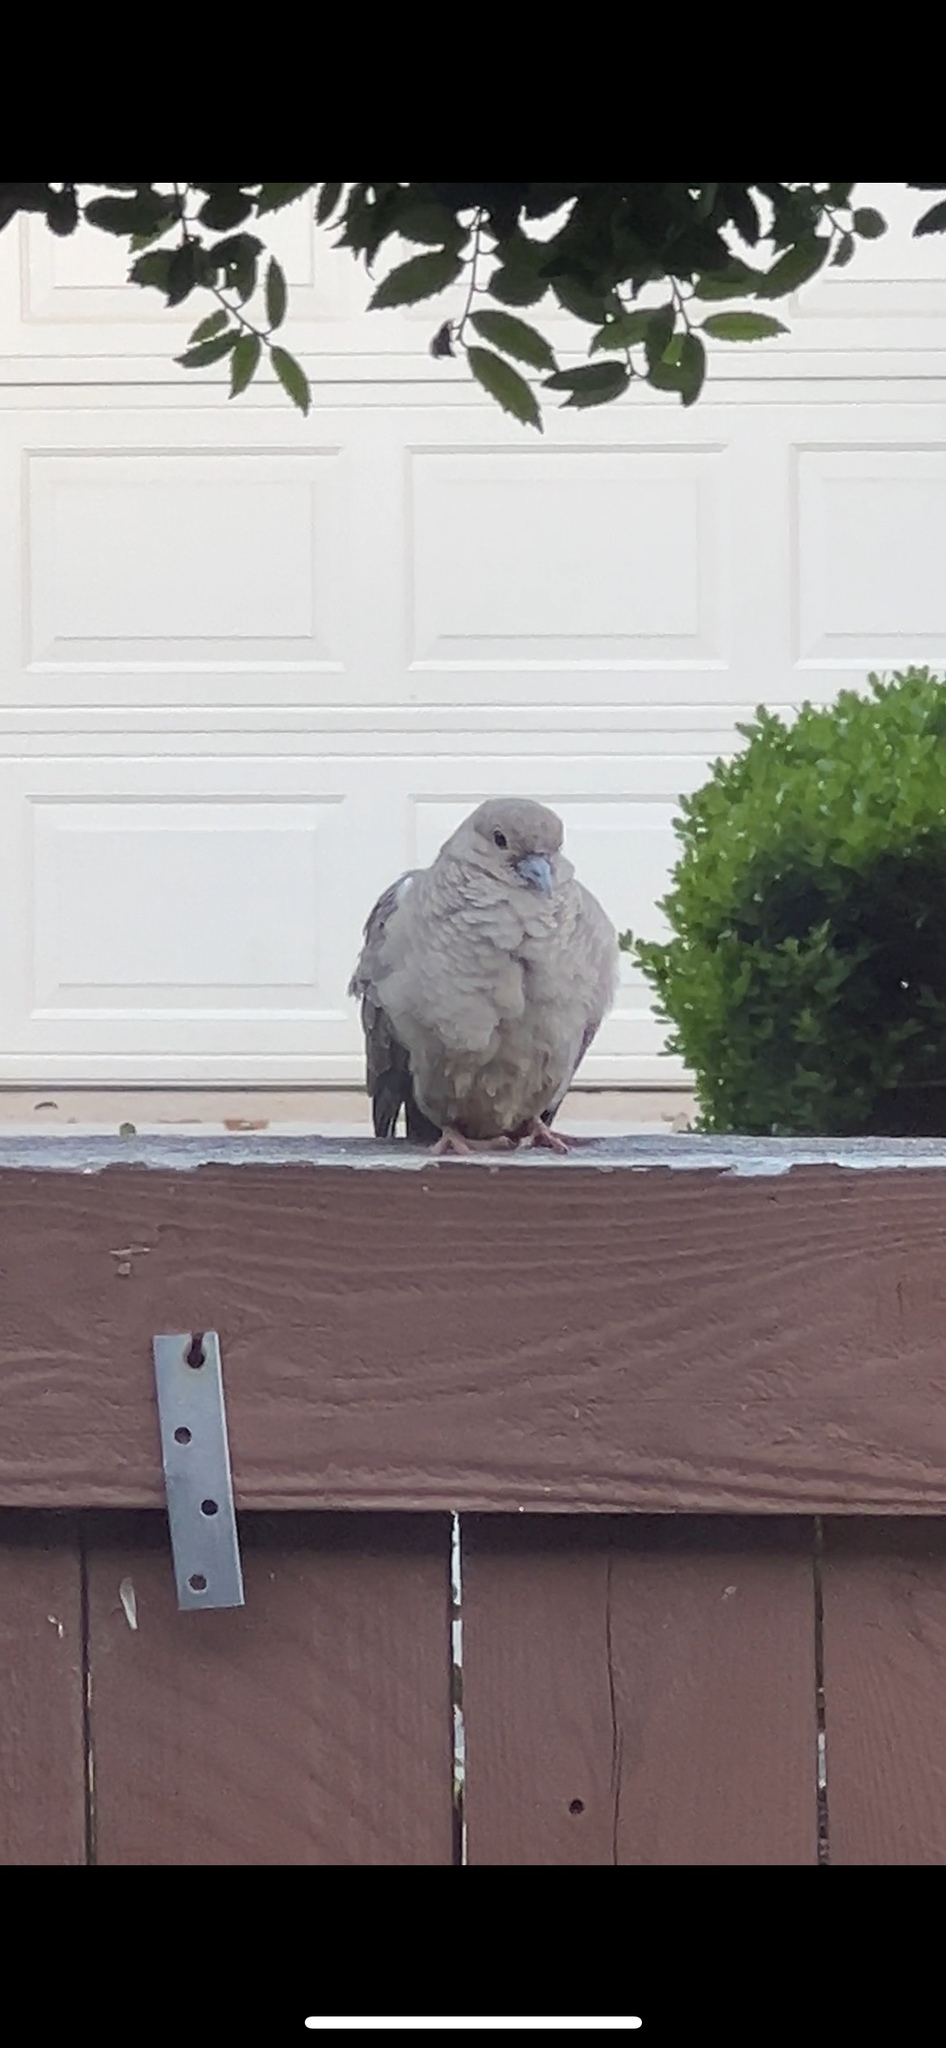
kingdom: Animalia
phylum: Chordata
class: Aves
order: Columbiformes
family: Columbidae
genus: Zenaida
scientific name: Zenaida macroura
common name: Mourning dove
